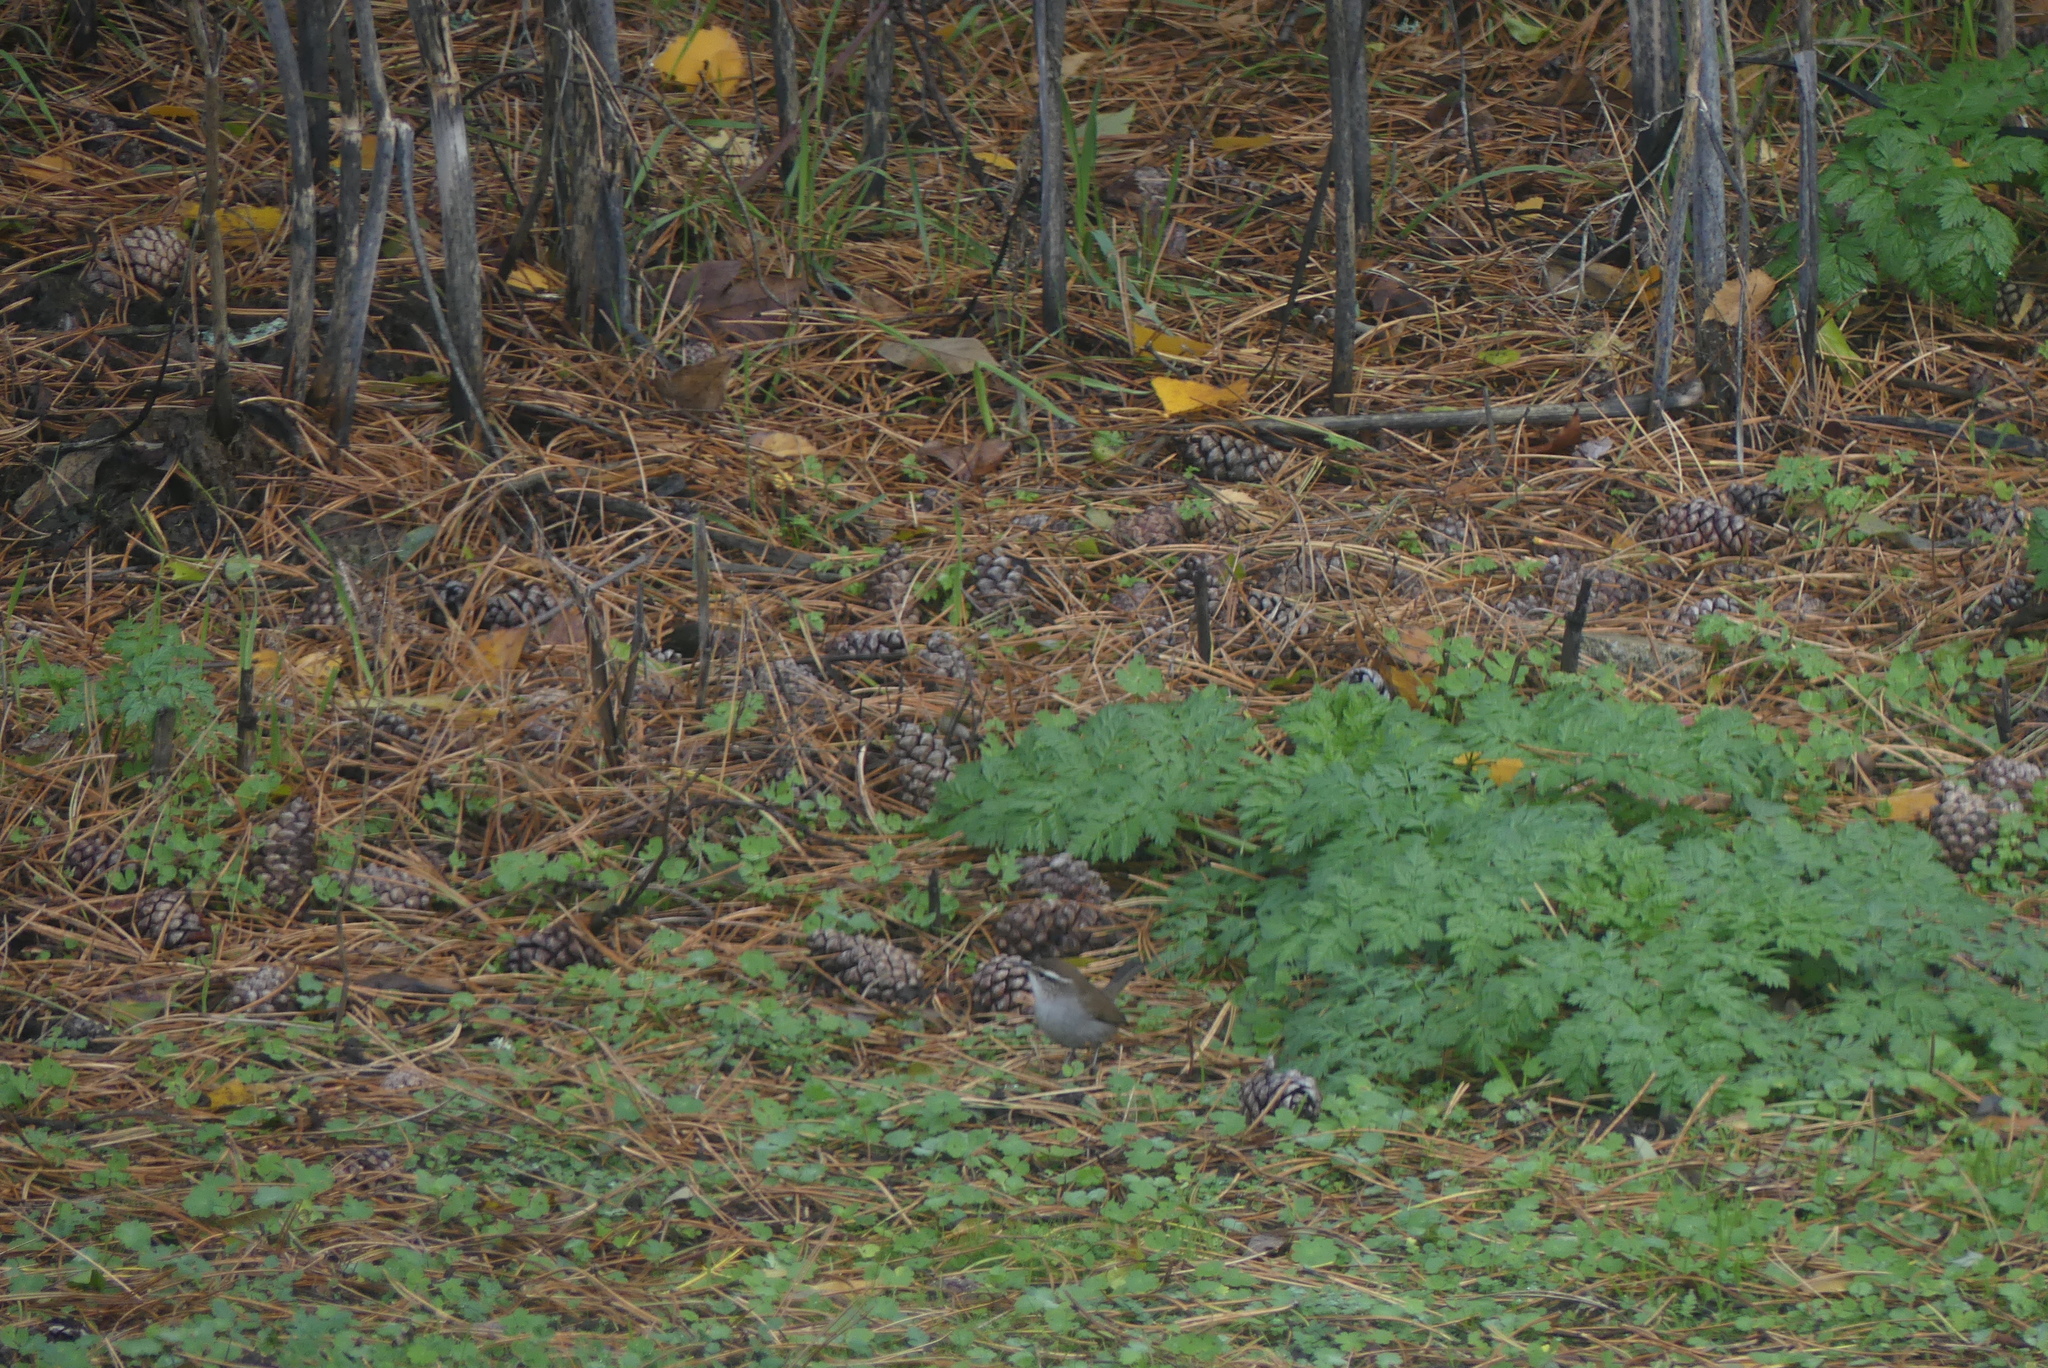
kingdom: Animalia
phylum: Chordata
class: Aves
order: Passeriformes
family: Troglodytidae
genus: Thryomanes
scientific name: Thryomanes bewickii
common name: Bewick's wren
